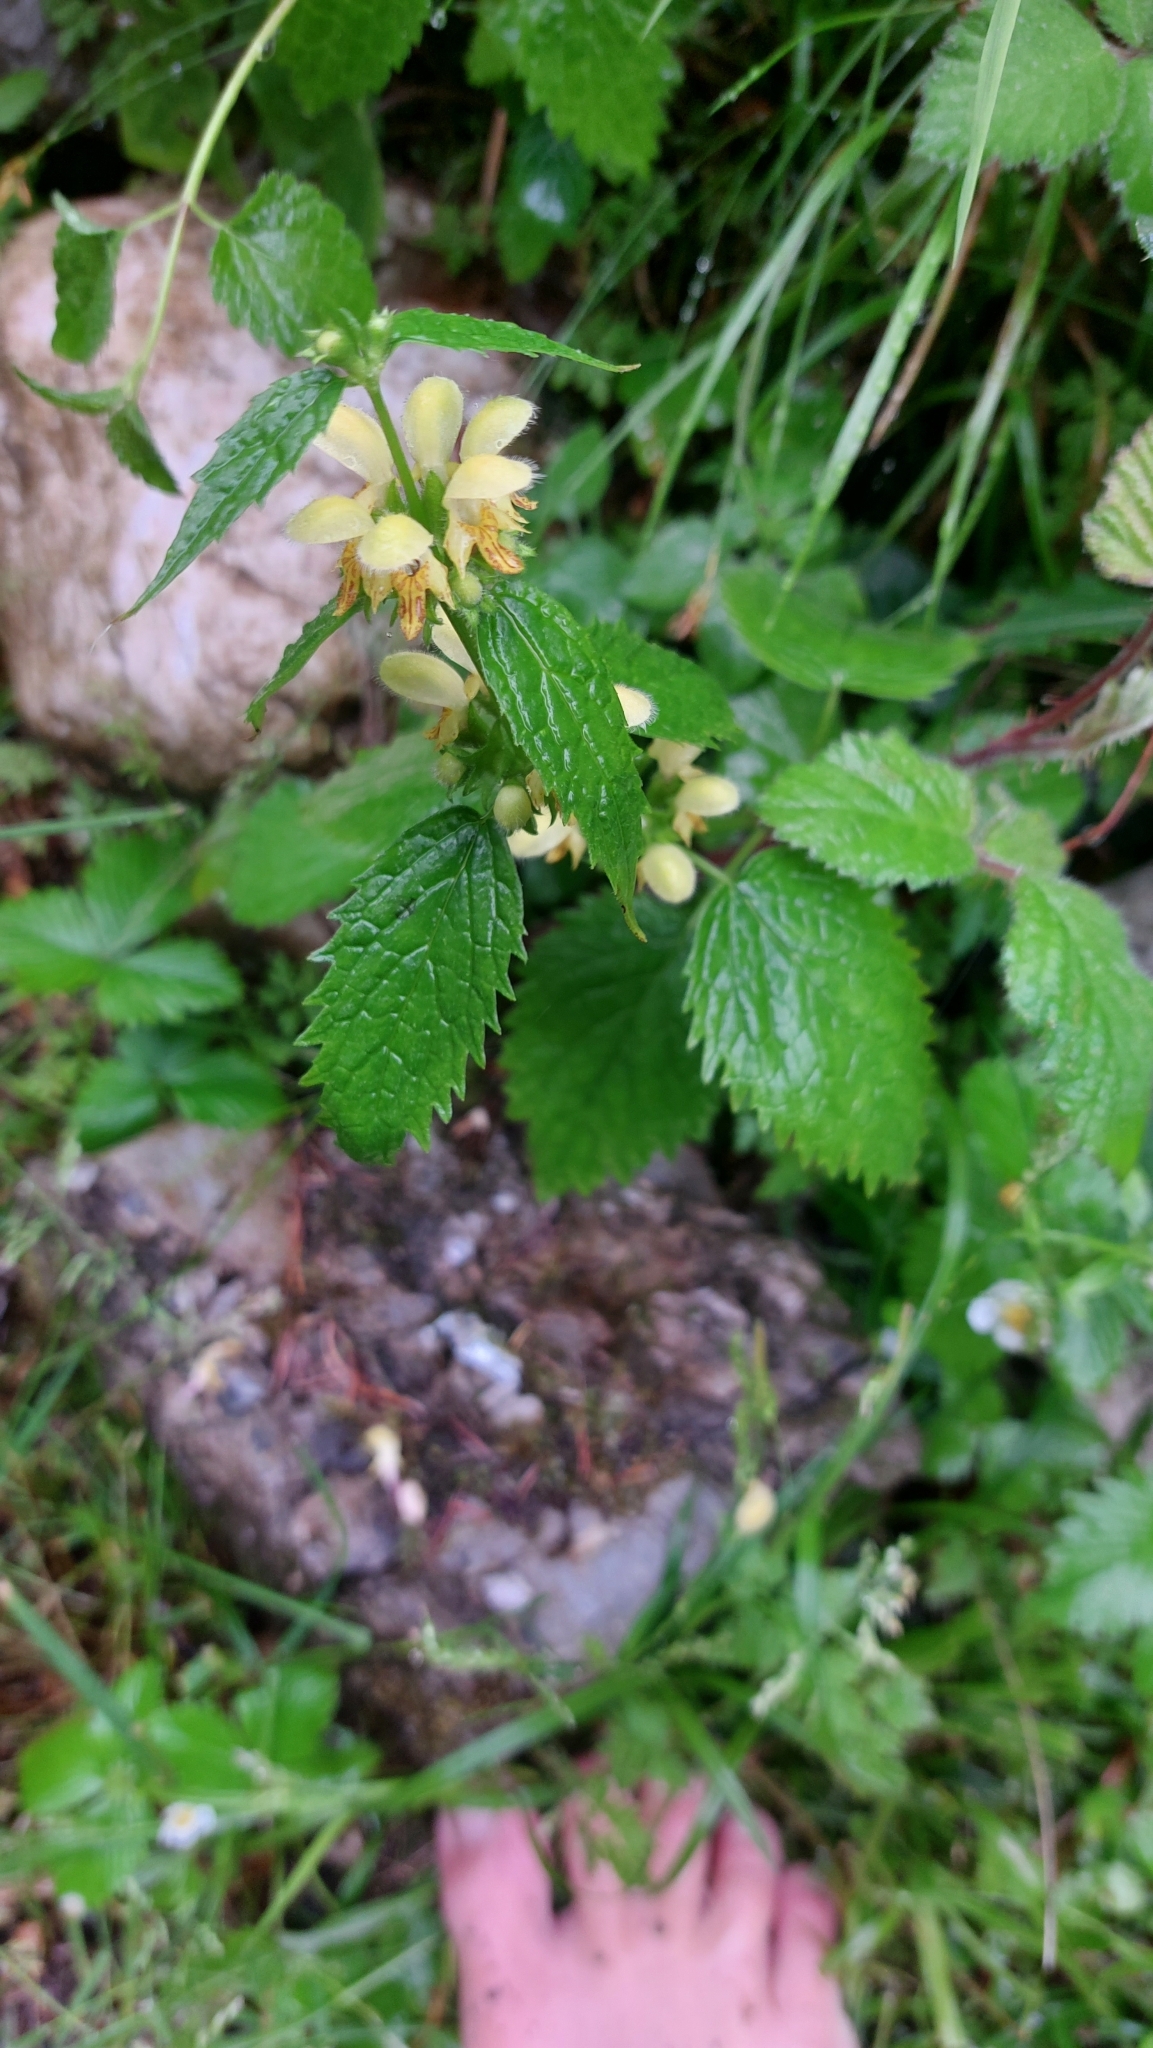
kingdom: Plantae
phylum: Tracheophyta
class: Magnoliopsida
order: Lamiales
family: Lamiaceae
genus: Lamium
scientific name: Lamium galeobdolon
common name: Yellow archangel
